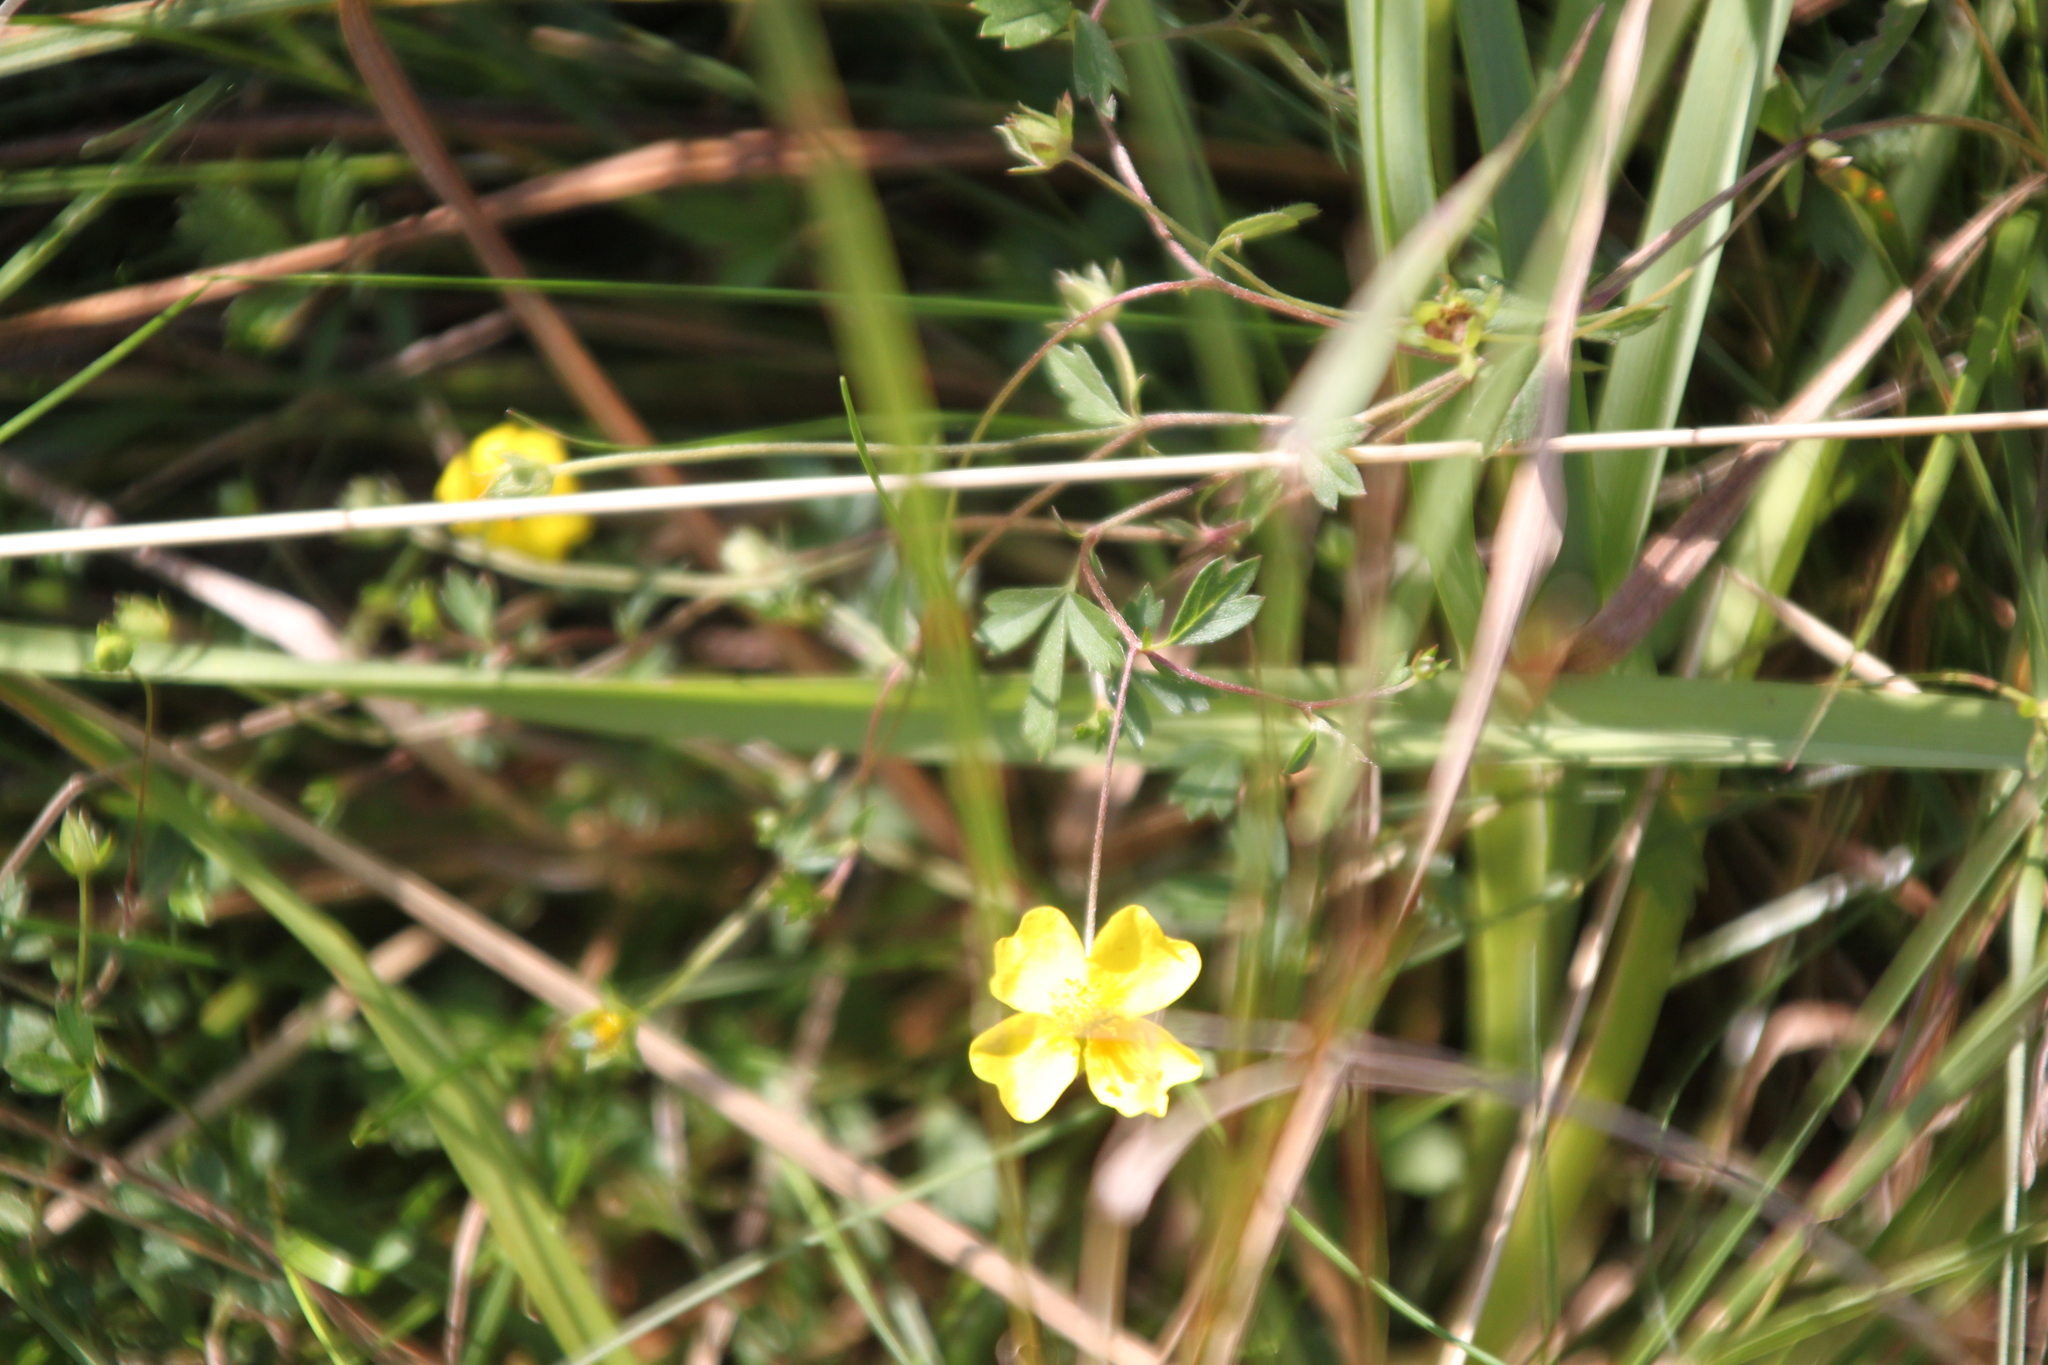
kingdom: Plantae
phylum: Tracheophyta
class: Magnoliopsida
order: Rosales
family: Rosaceae
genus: Potentilla
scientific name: Potentilla erecta
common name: Tormentil
